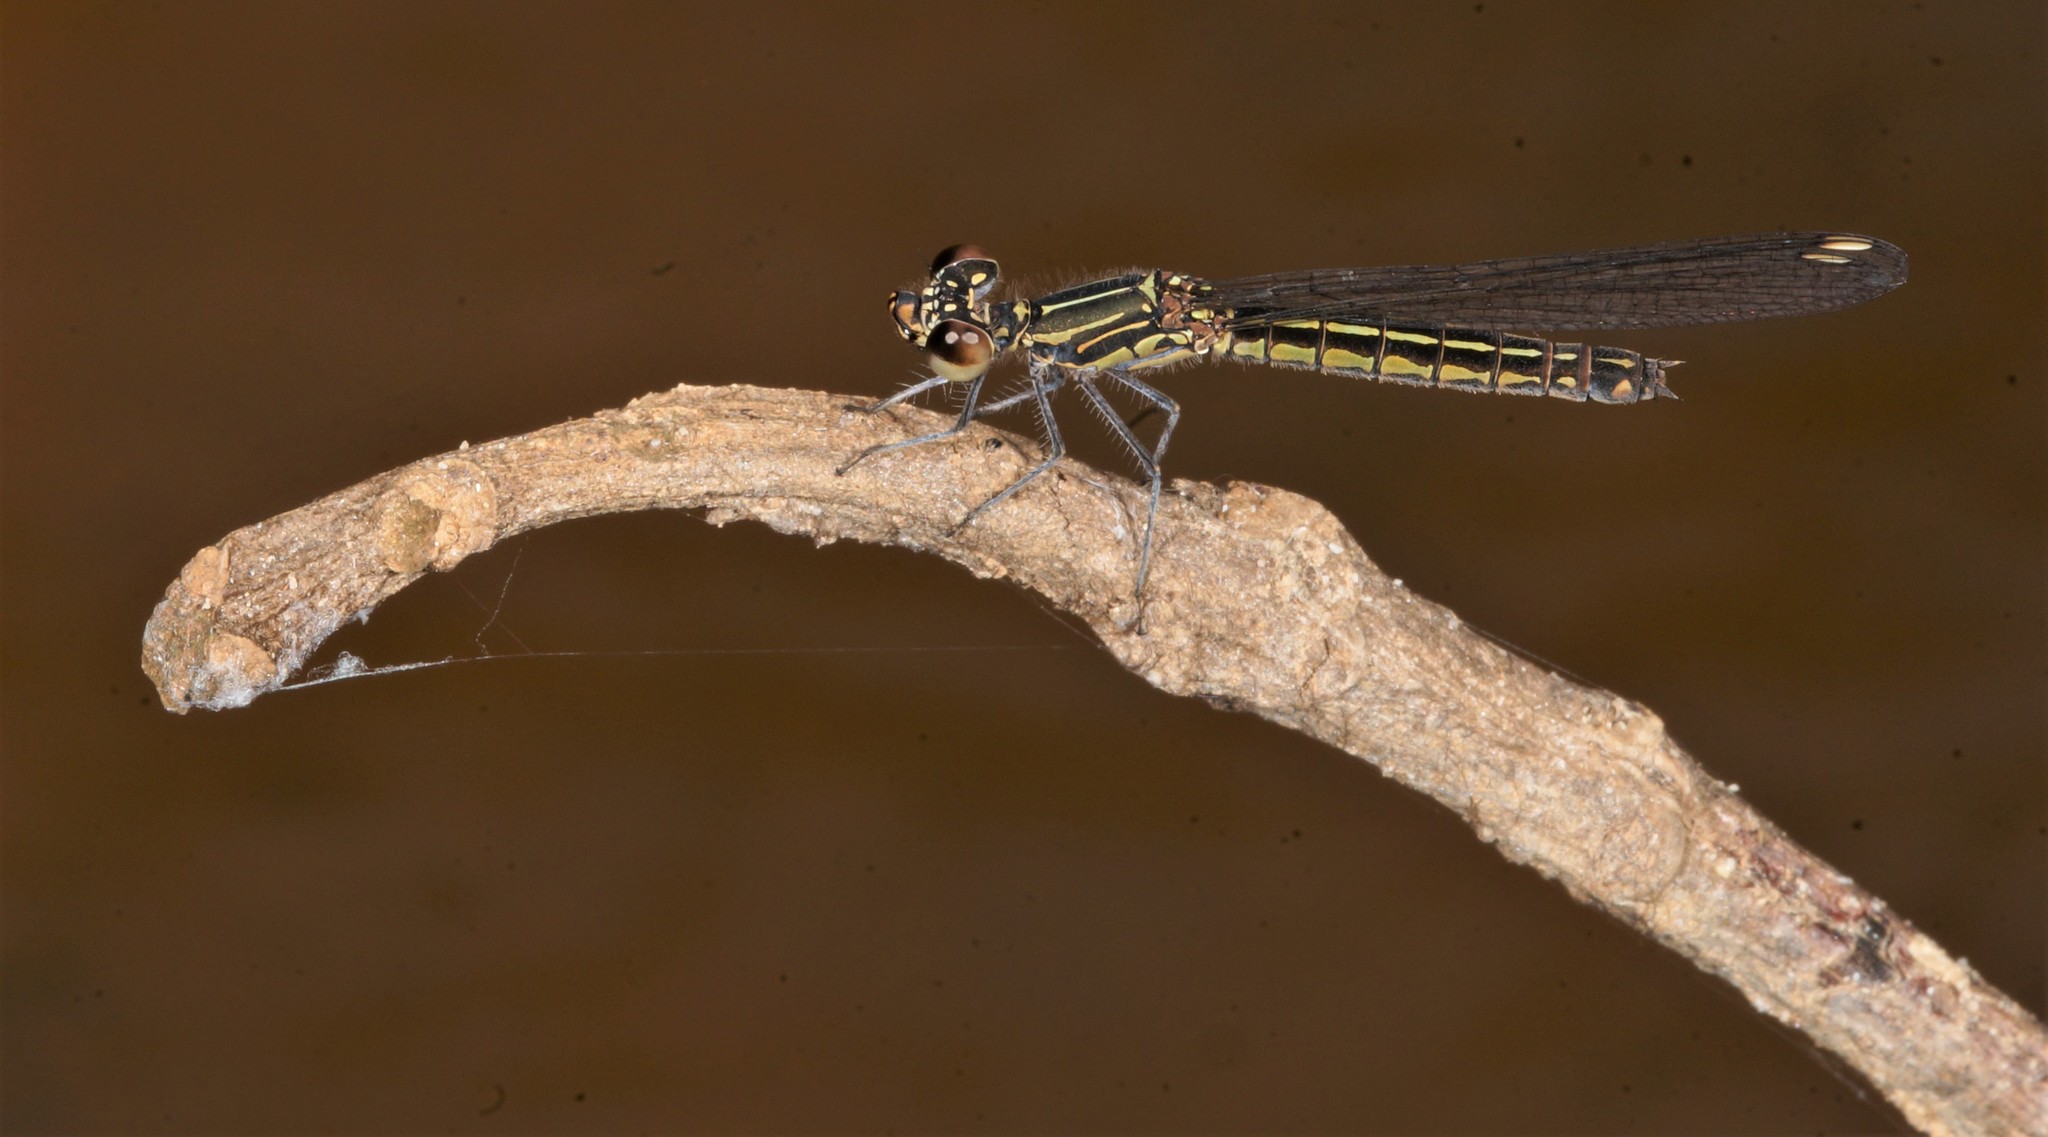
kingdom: Animalia
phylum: Arthropoda
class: Insecta
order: Odonata
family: Chlorocyphidae
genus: Libellago
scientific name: Libellago lineata
